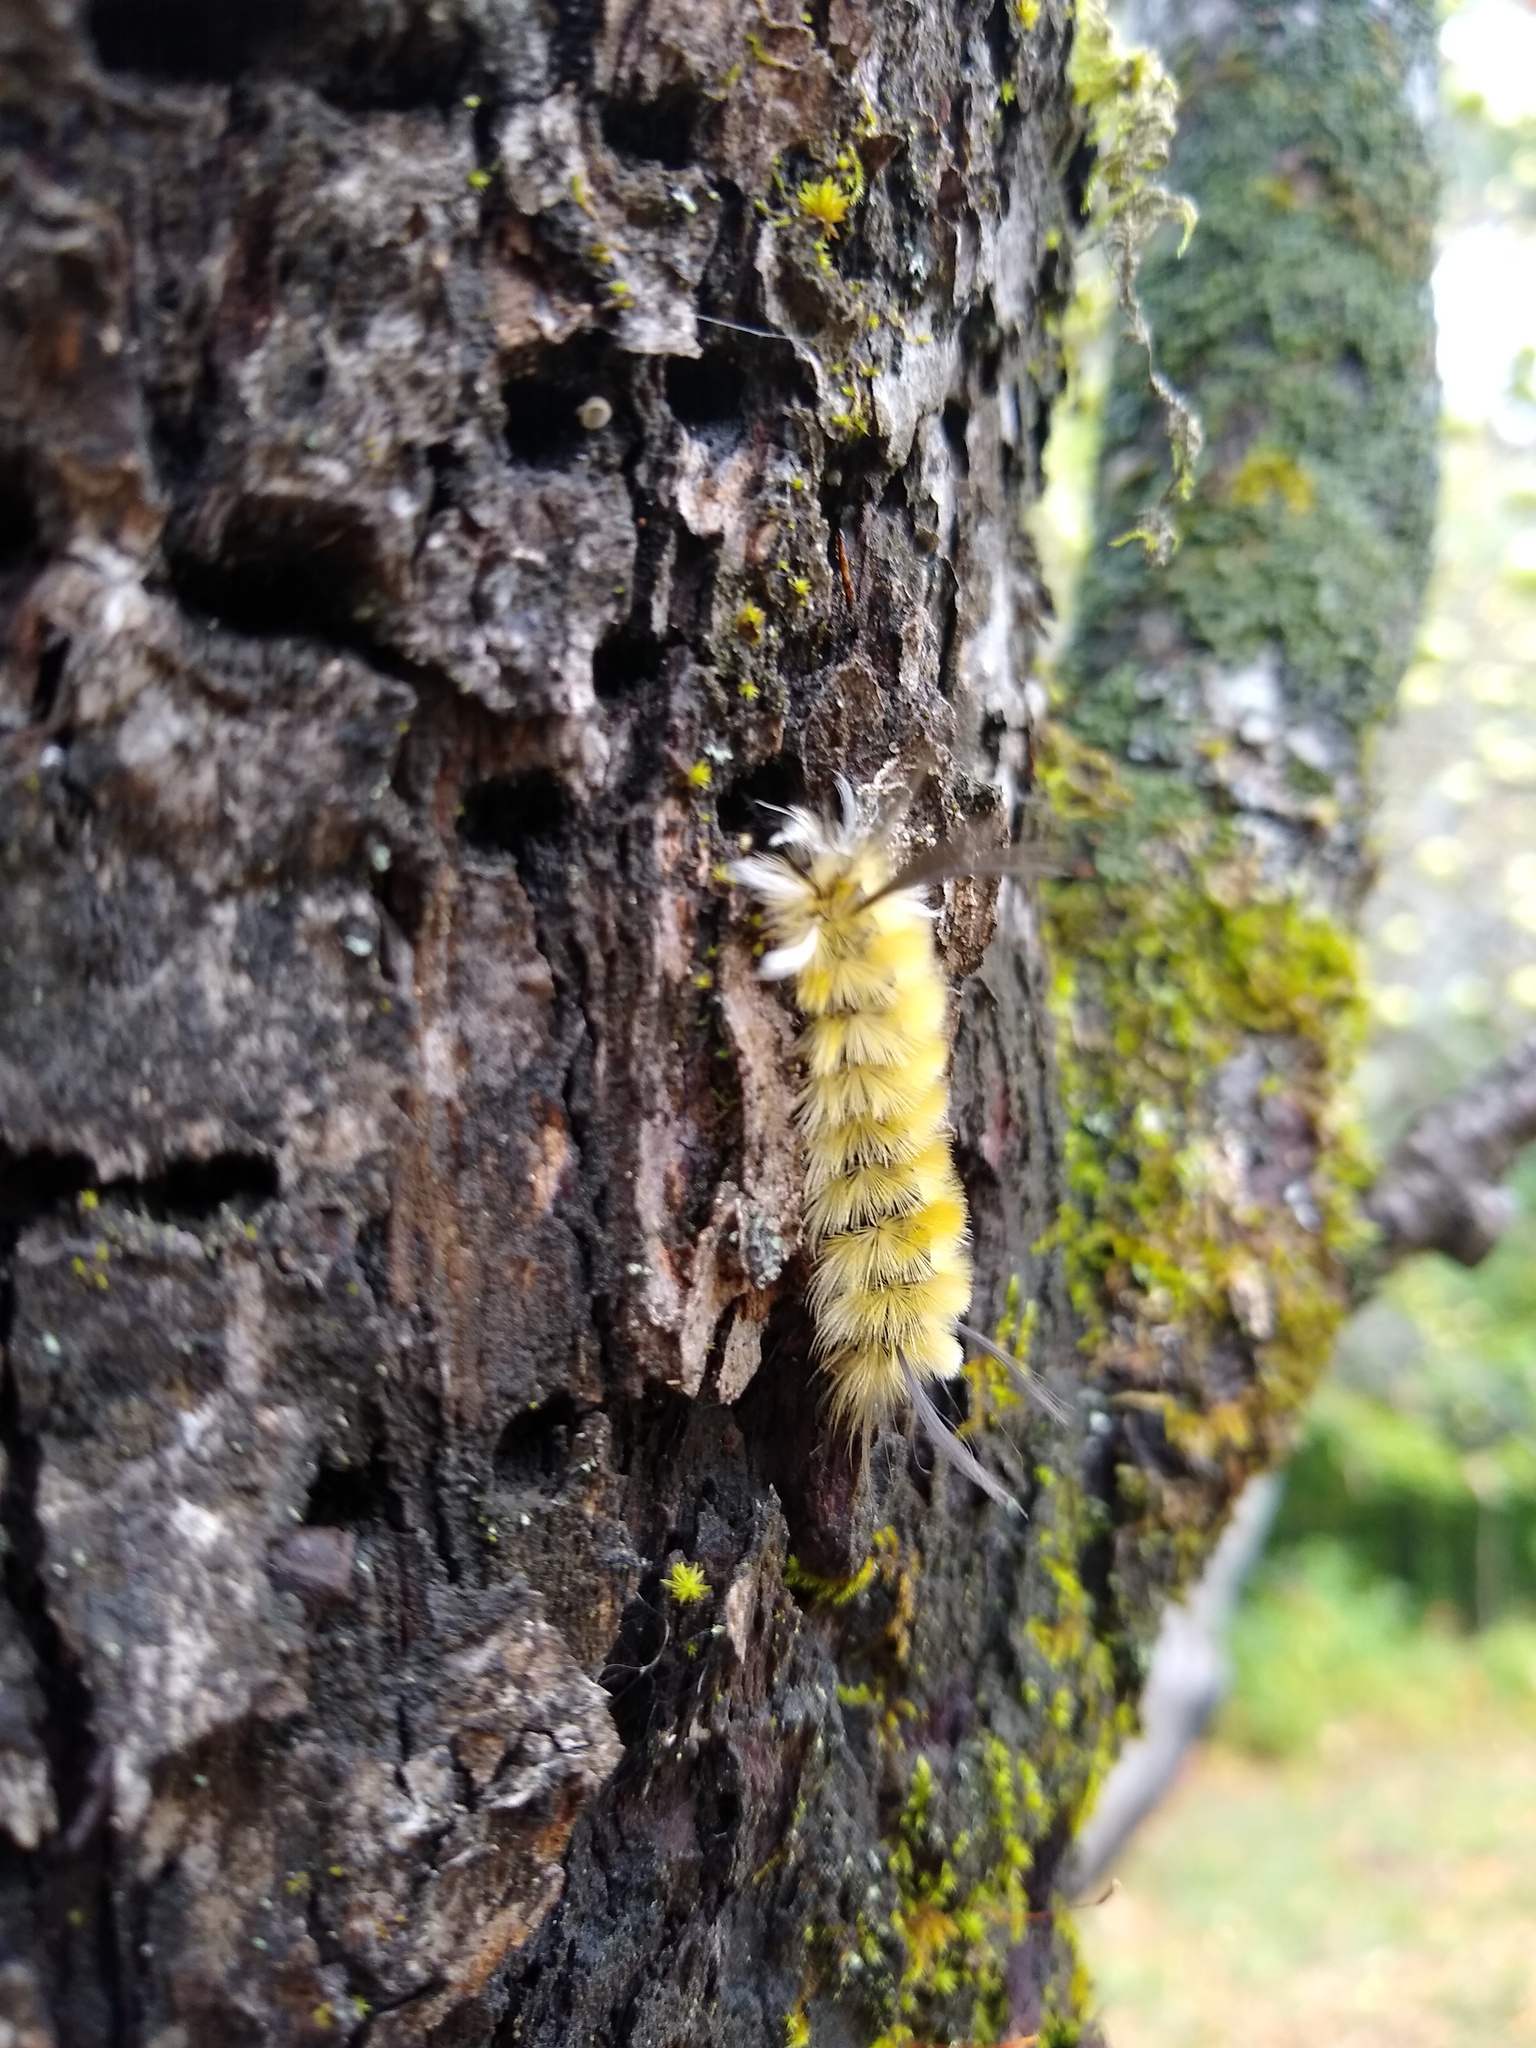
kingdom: Animalia
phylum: Arthropoda
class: Insecta
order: Lepidoptera
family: Erebidae
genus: Halysidota
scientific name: Halysidota tessellaris
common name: Banded tussock moth
